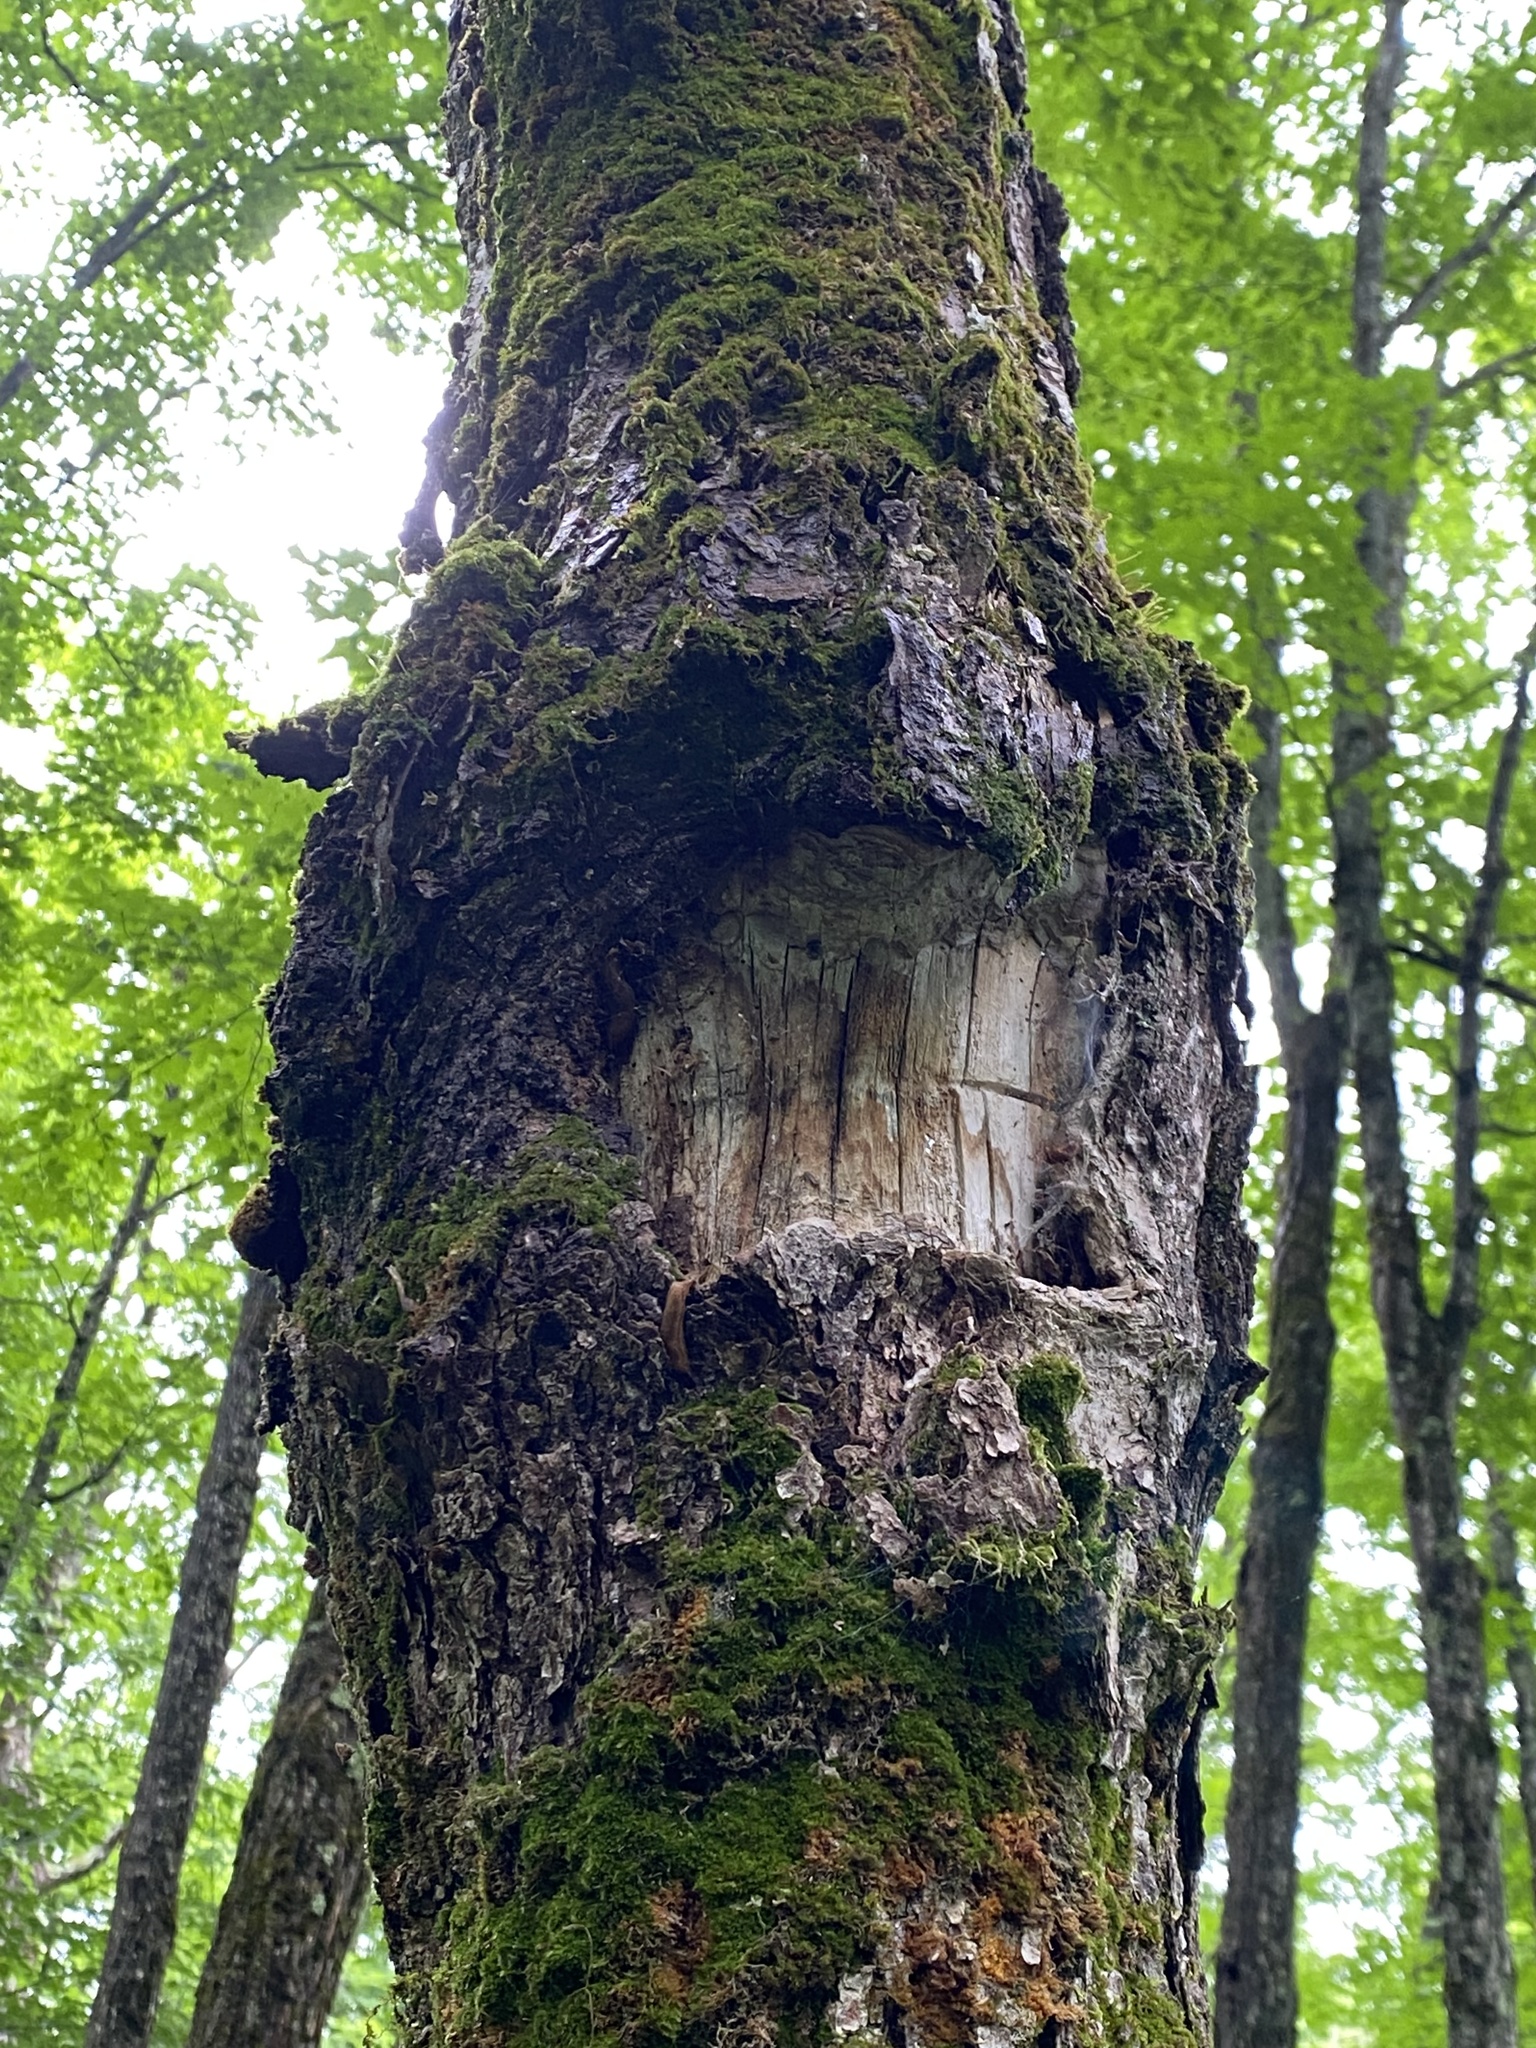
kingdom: Animalia
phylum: Arthropoda
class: Insecta
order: Coleoptera
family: Cerambycidae
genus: Glycobius
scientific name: Glycobius speciosus
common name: Sugar maple borer
